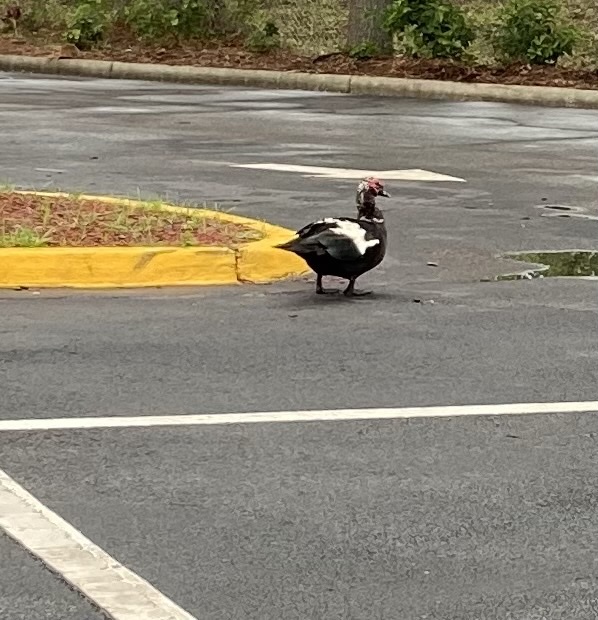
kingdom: Animalia
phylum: Chordata
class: Aves
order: Anseriformes
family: Anatidae
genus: Cairina
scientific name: Cairina moschata
